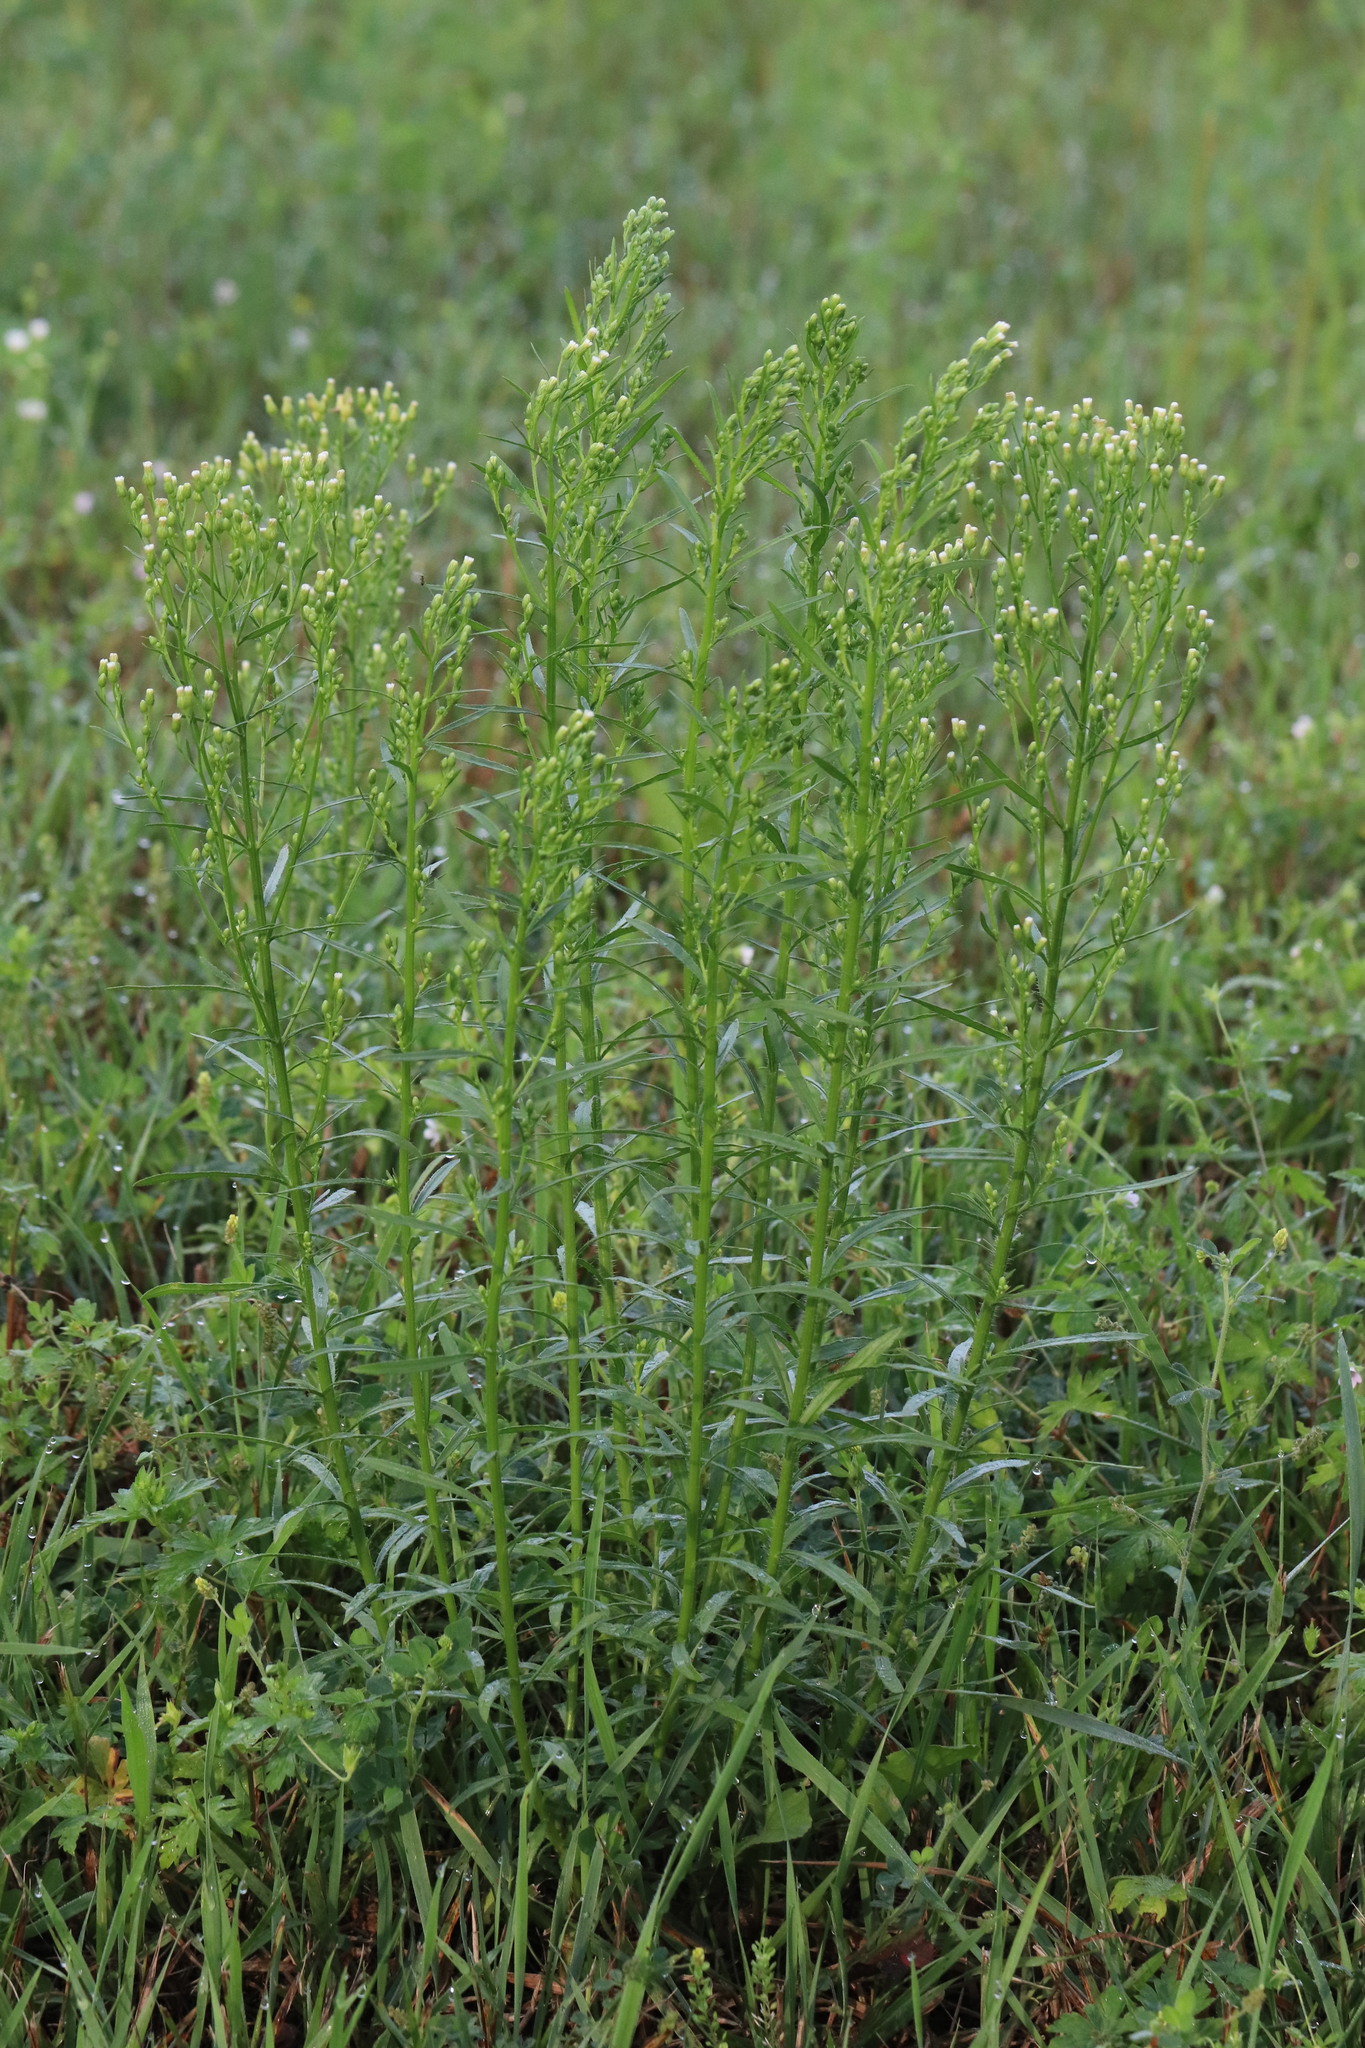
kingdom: Plantae
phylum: Tracheophyta
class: Magnoliopsida
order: Asterales
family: Asteraceae
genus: Erigeron
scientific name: Erigeron canadensis
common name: Canadian fleabane
